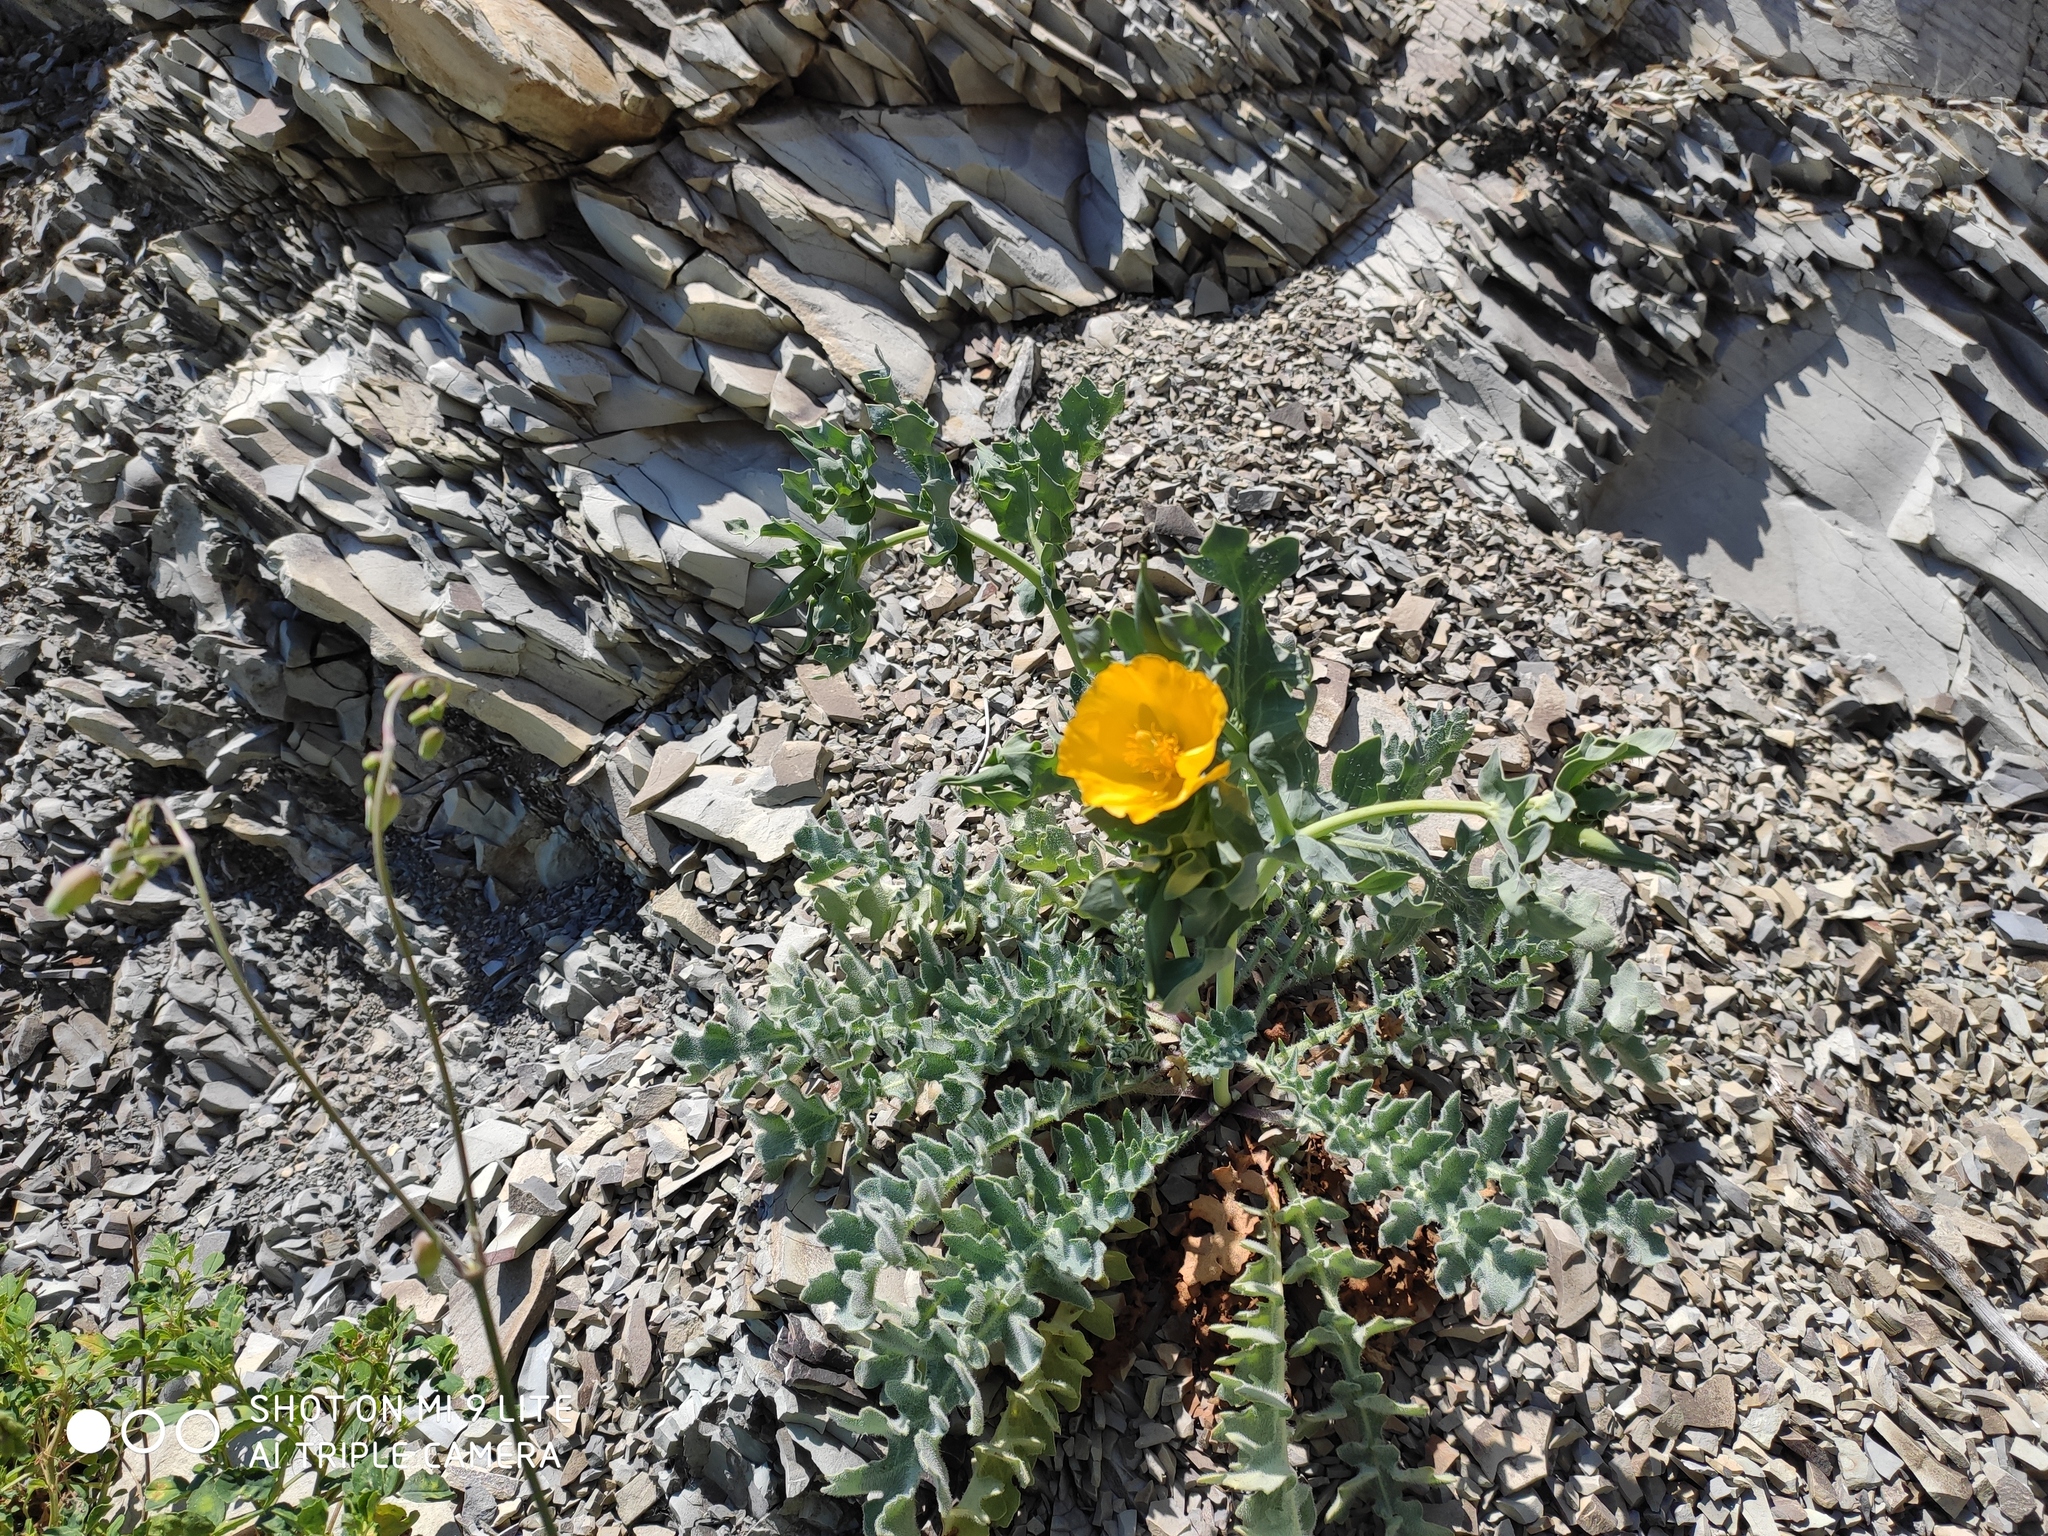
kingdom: Plantae
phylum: Tracheophyta
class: Magnoliopsida
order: Ranunculales
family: Papaveraceae
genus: Glaucium
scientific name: Glaucium flavum
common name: Yellow horned-poppy
